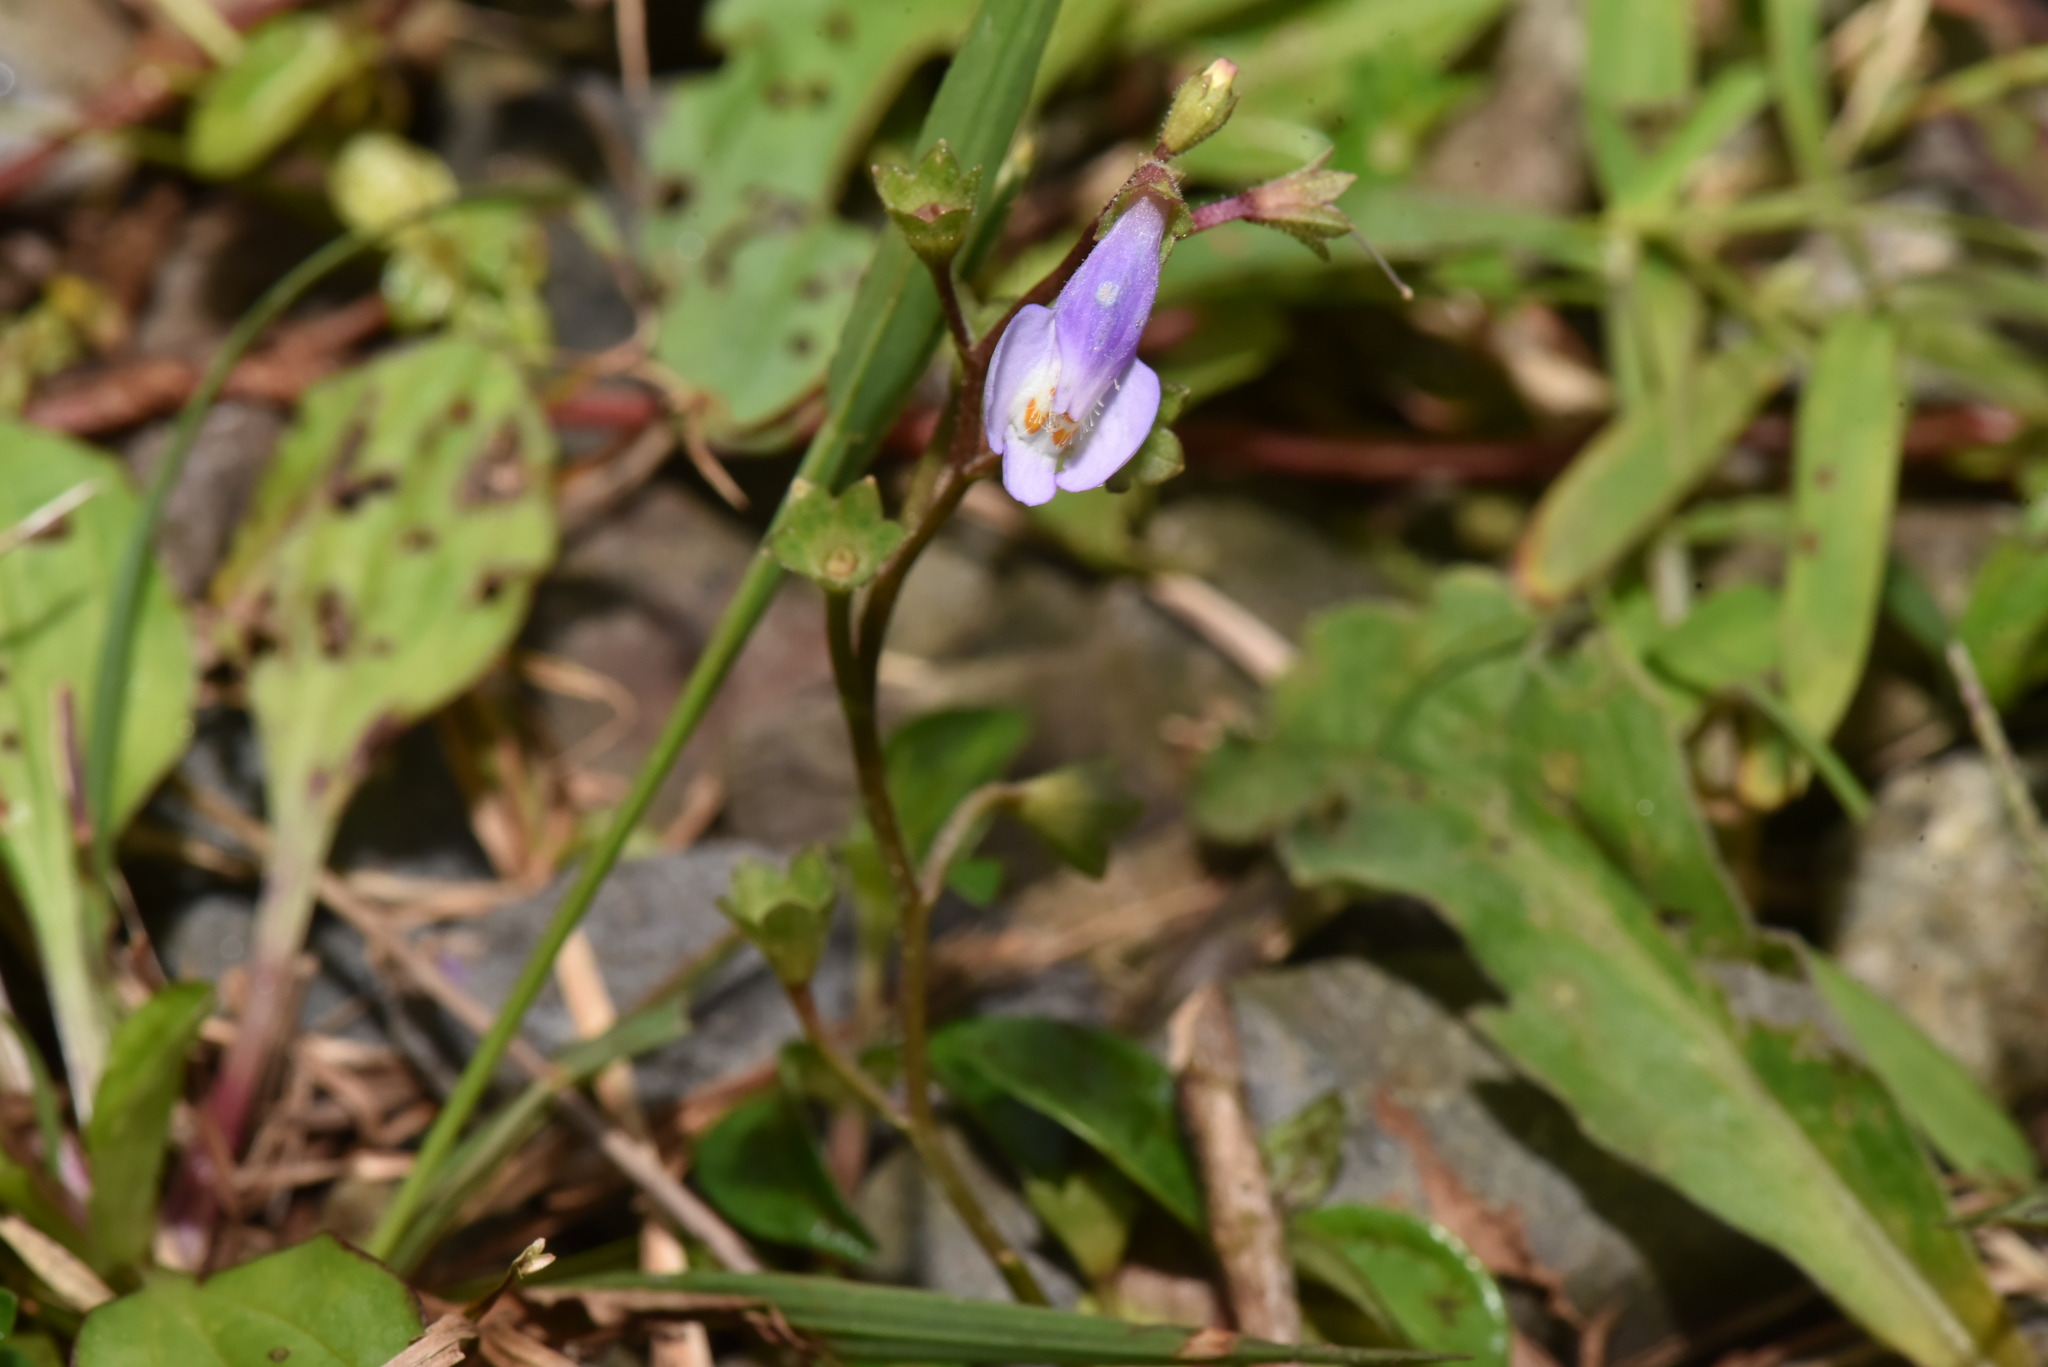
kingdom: Plantae
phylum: Tracheophyta
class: Magnoliopsida
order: Lamiales
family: Mazaceae
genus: Mazus
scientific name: Mazus fauriei
